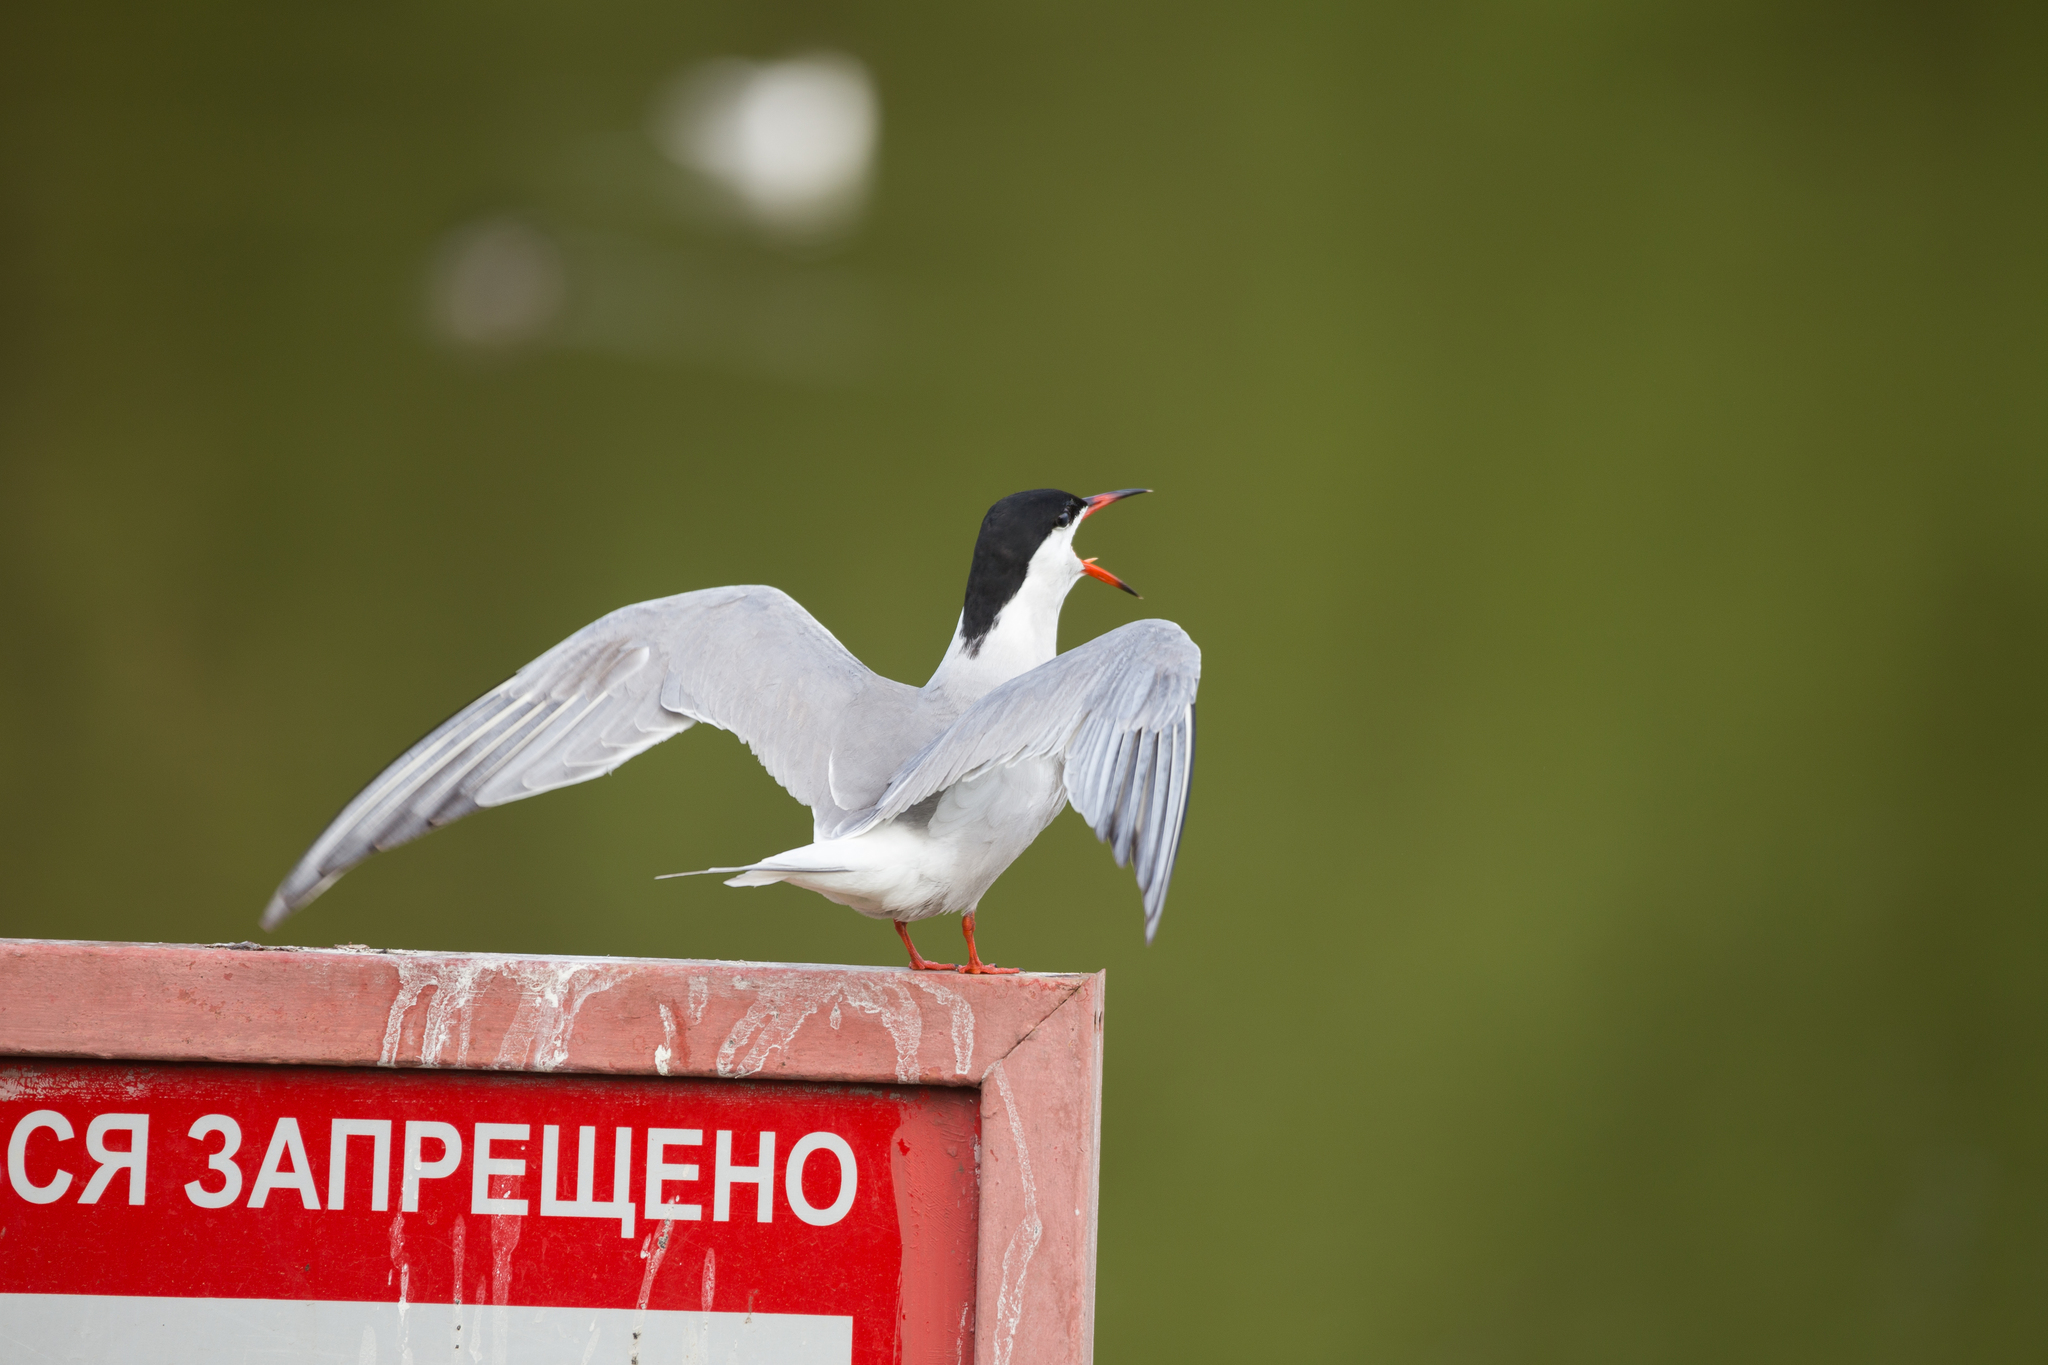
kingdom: Animalia
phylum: Chordata
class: Aves
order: Charadriiformes
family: Laridae
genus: Sterna
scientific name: Sterna hirundo
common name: Common tern
